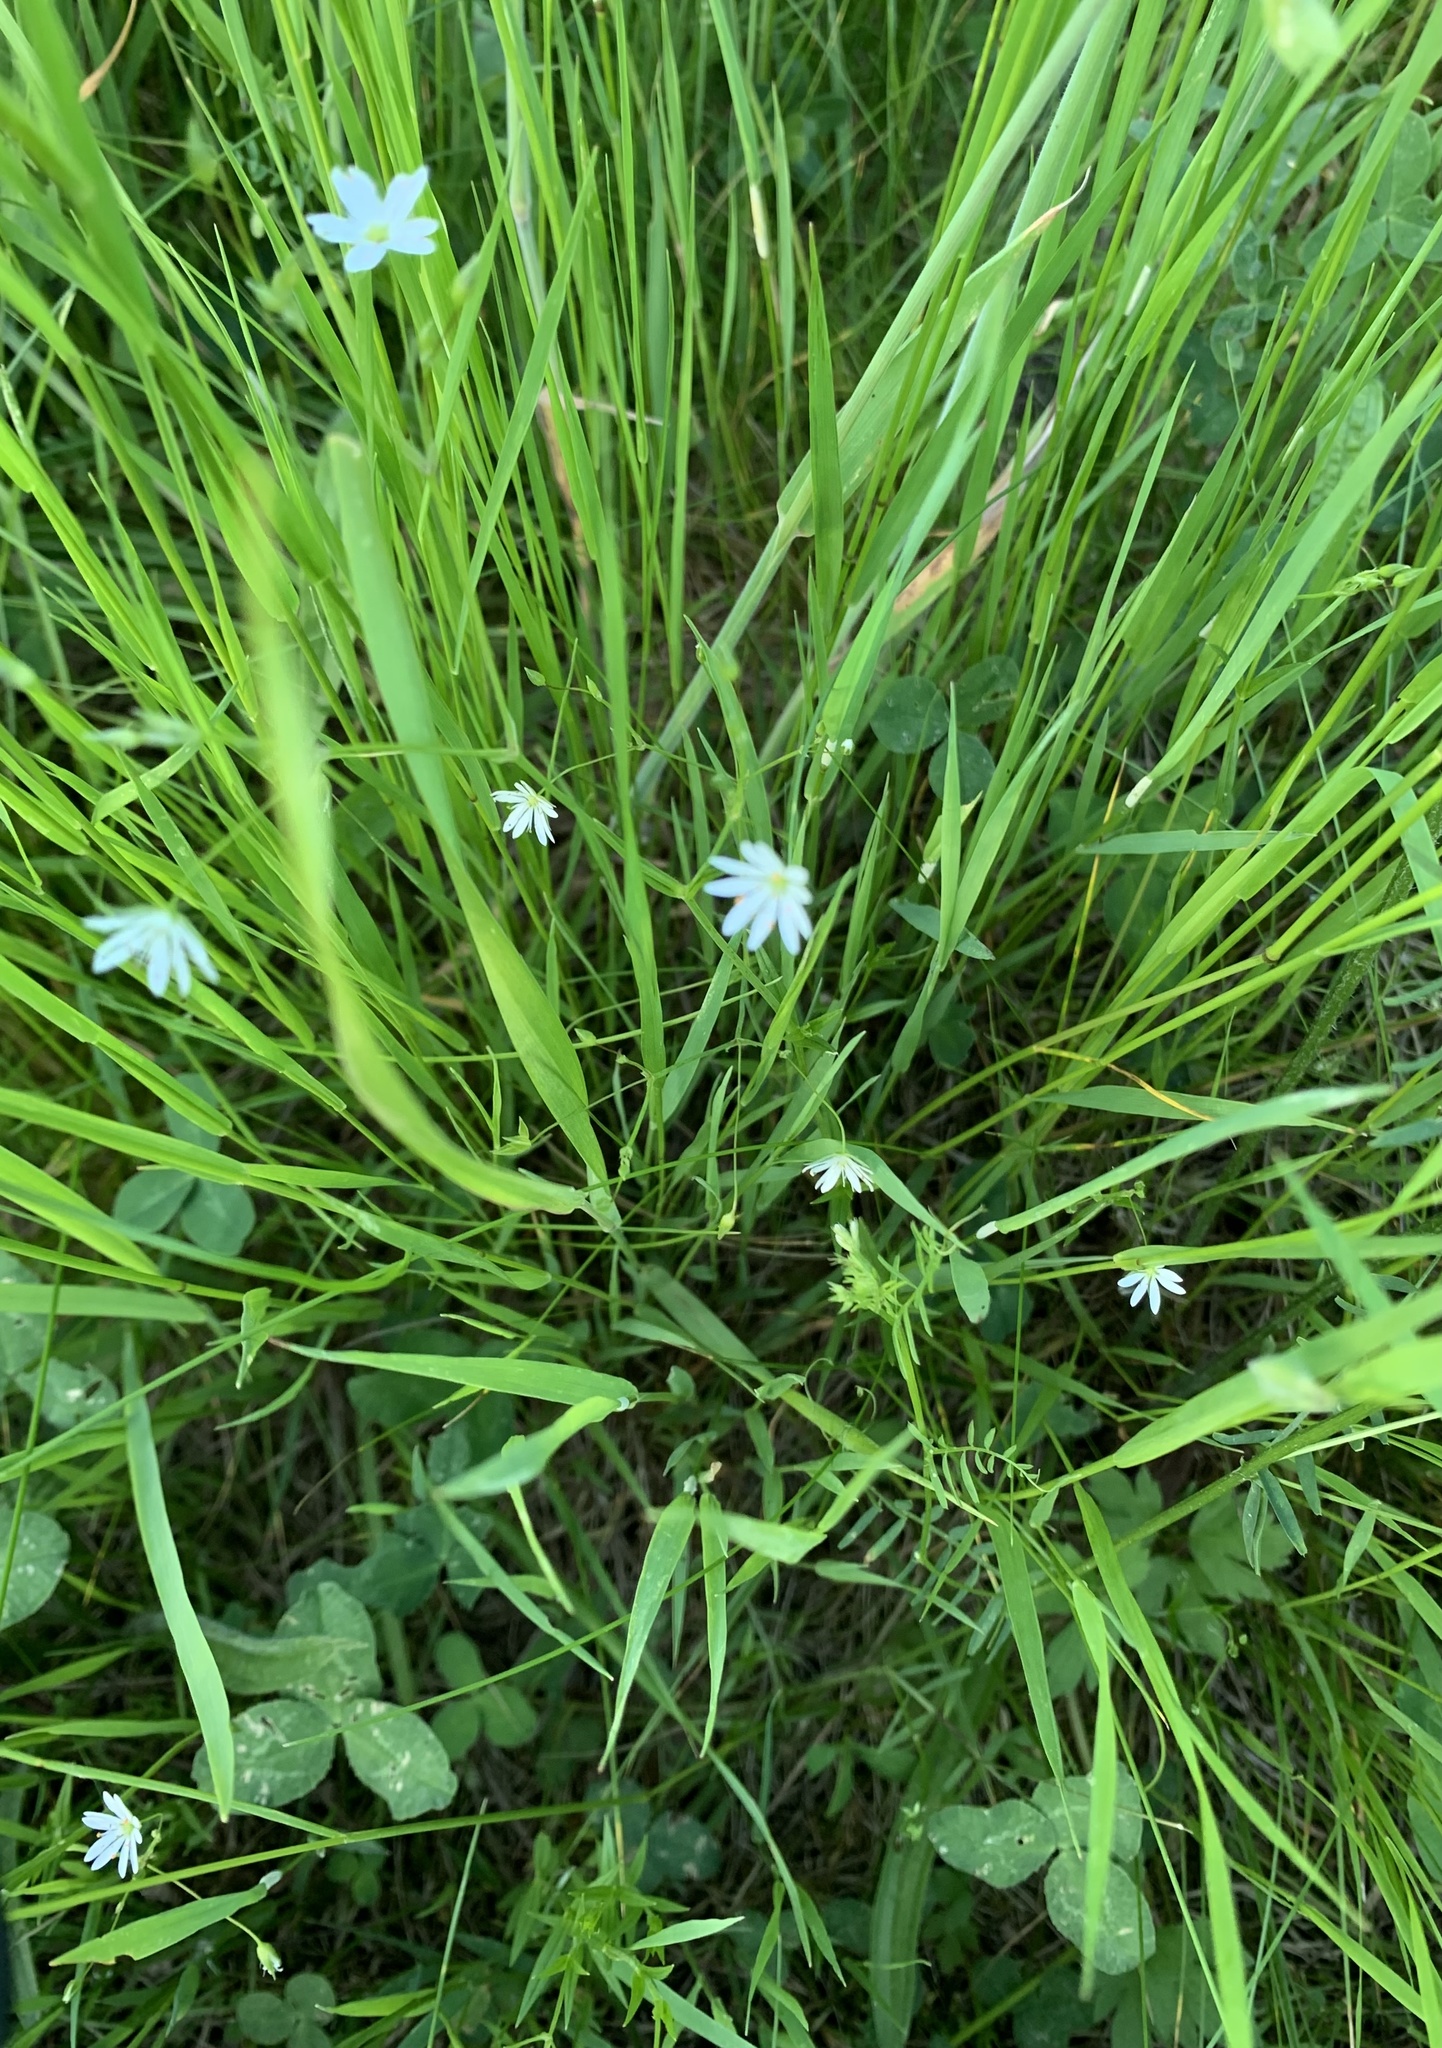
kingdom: Plantae
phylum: Tracheophyta
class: Magnoliopsida
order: Caryophyllales
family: Caryophyllaceae
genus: Stellaria
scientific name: Stellaria graminea
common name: Grass-like starwort
